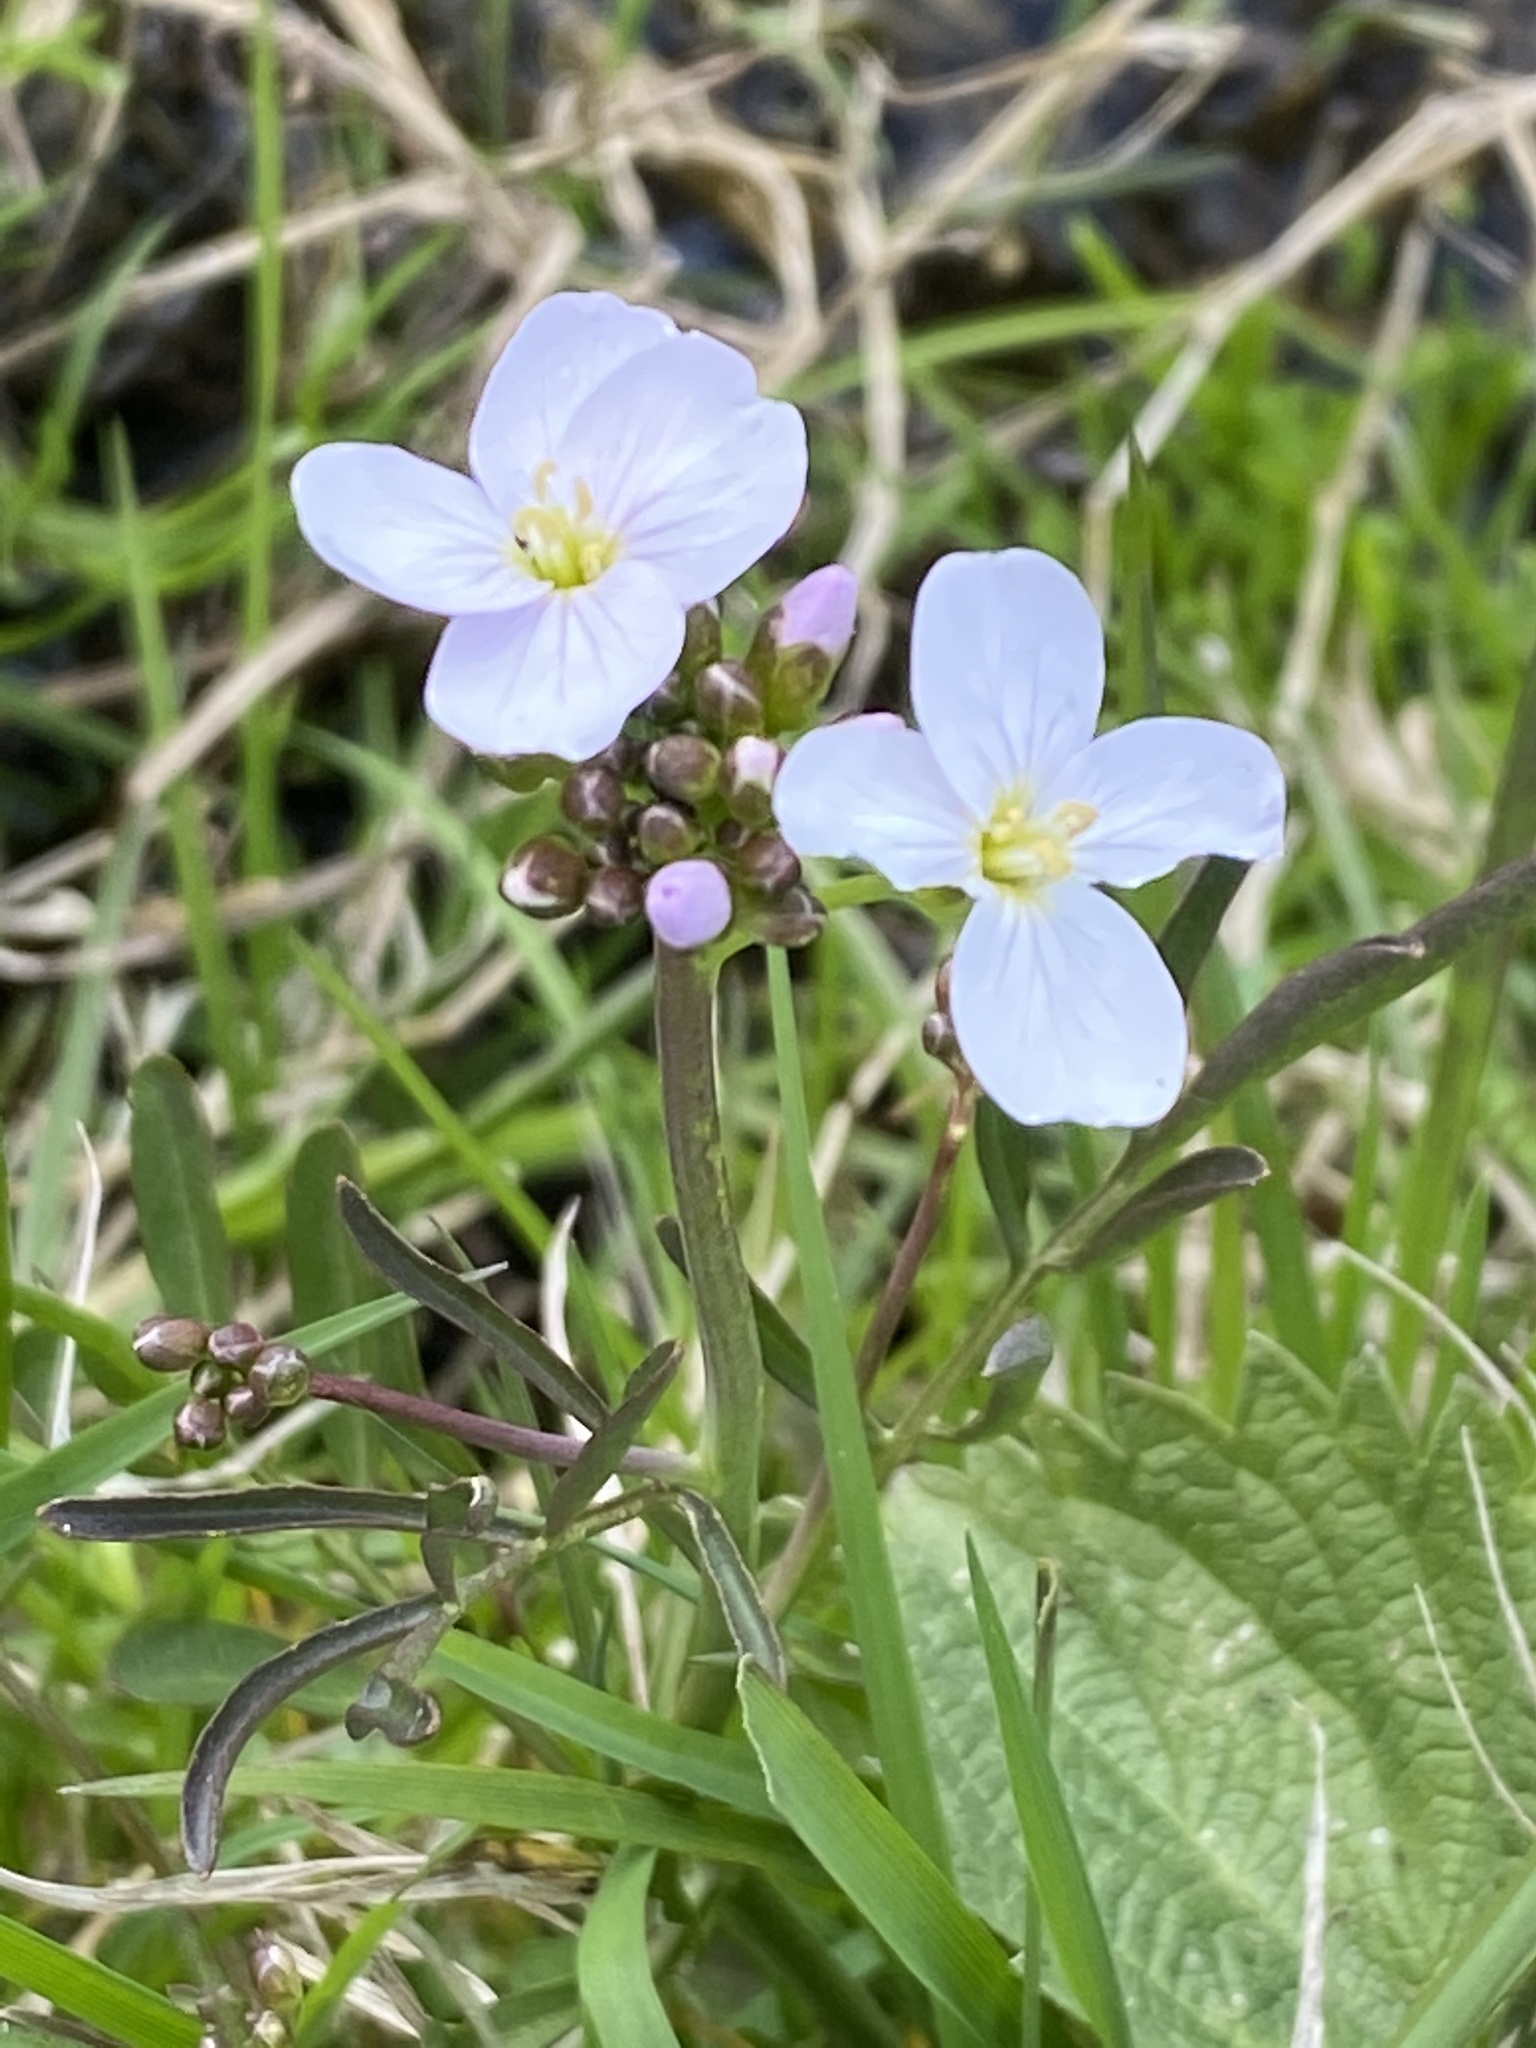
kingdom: Plantae
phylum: Tracheophyta
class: Magnoliopsida
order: Brassicales
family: Brassicaceae
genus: Cardamine
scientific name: Cardamine pratensis
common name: Cuckoo flower
